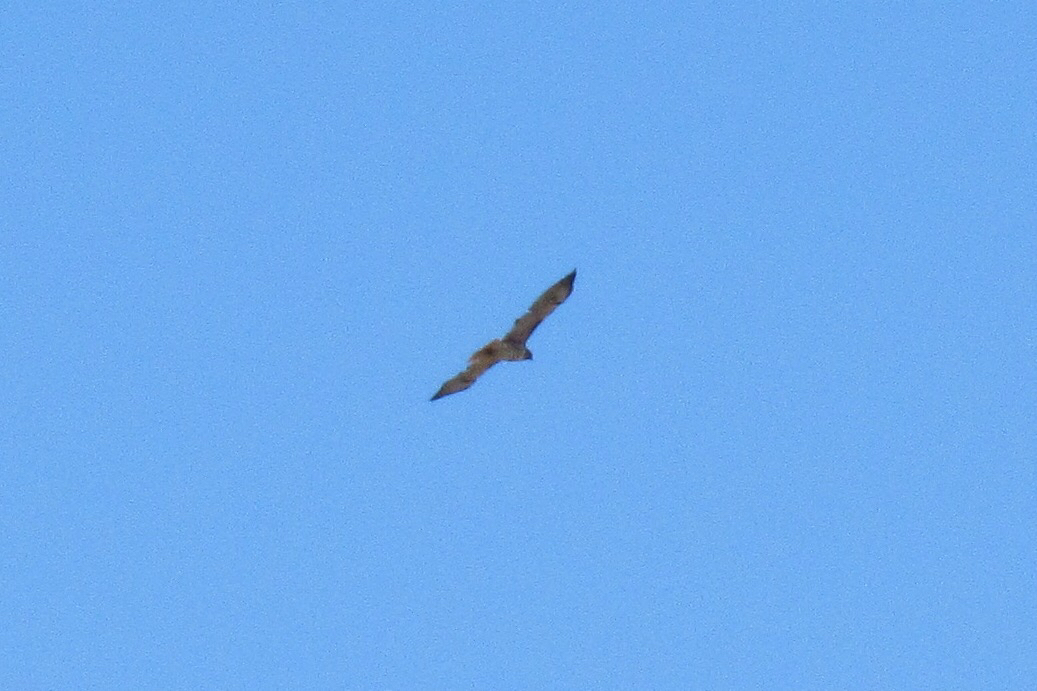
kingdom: Animalia
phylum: Chordata
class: Aves
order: Accipitriformes
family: Accipitridae
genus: Buteo
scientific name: Buteo jamaicensis
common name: Red-tailed hawk
